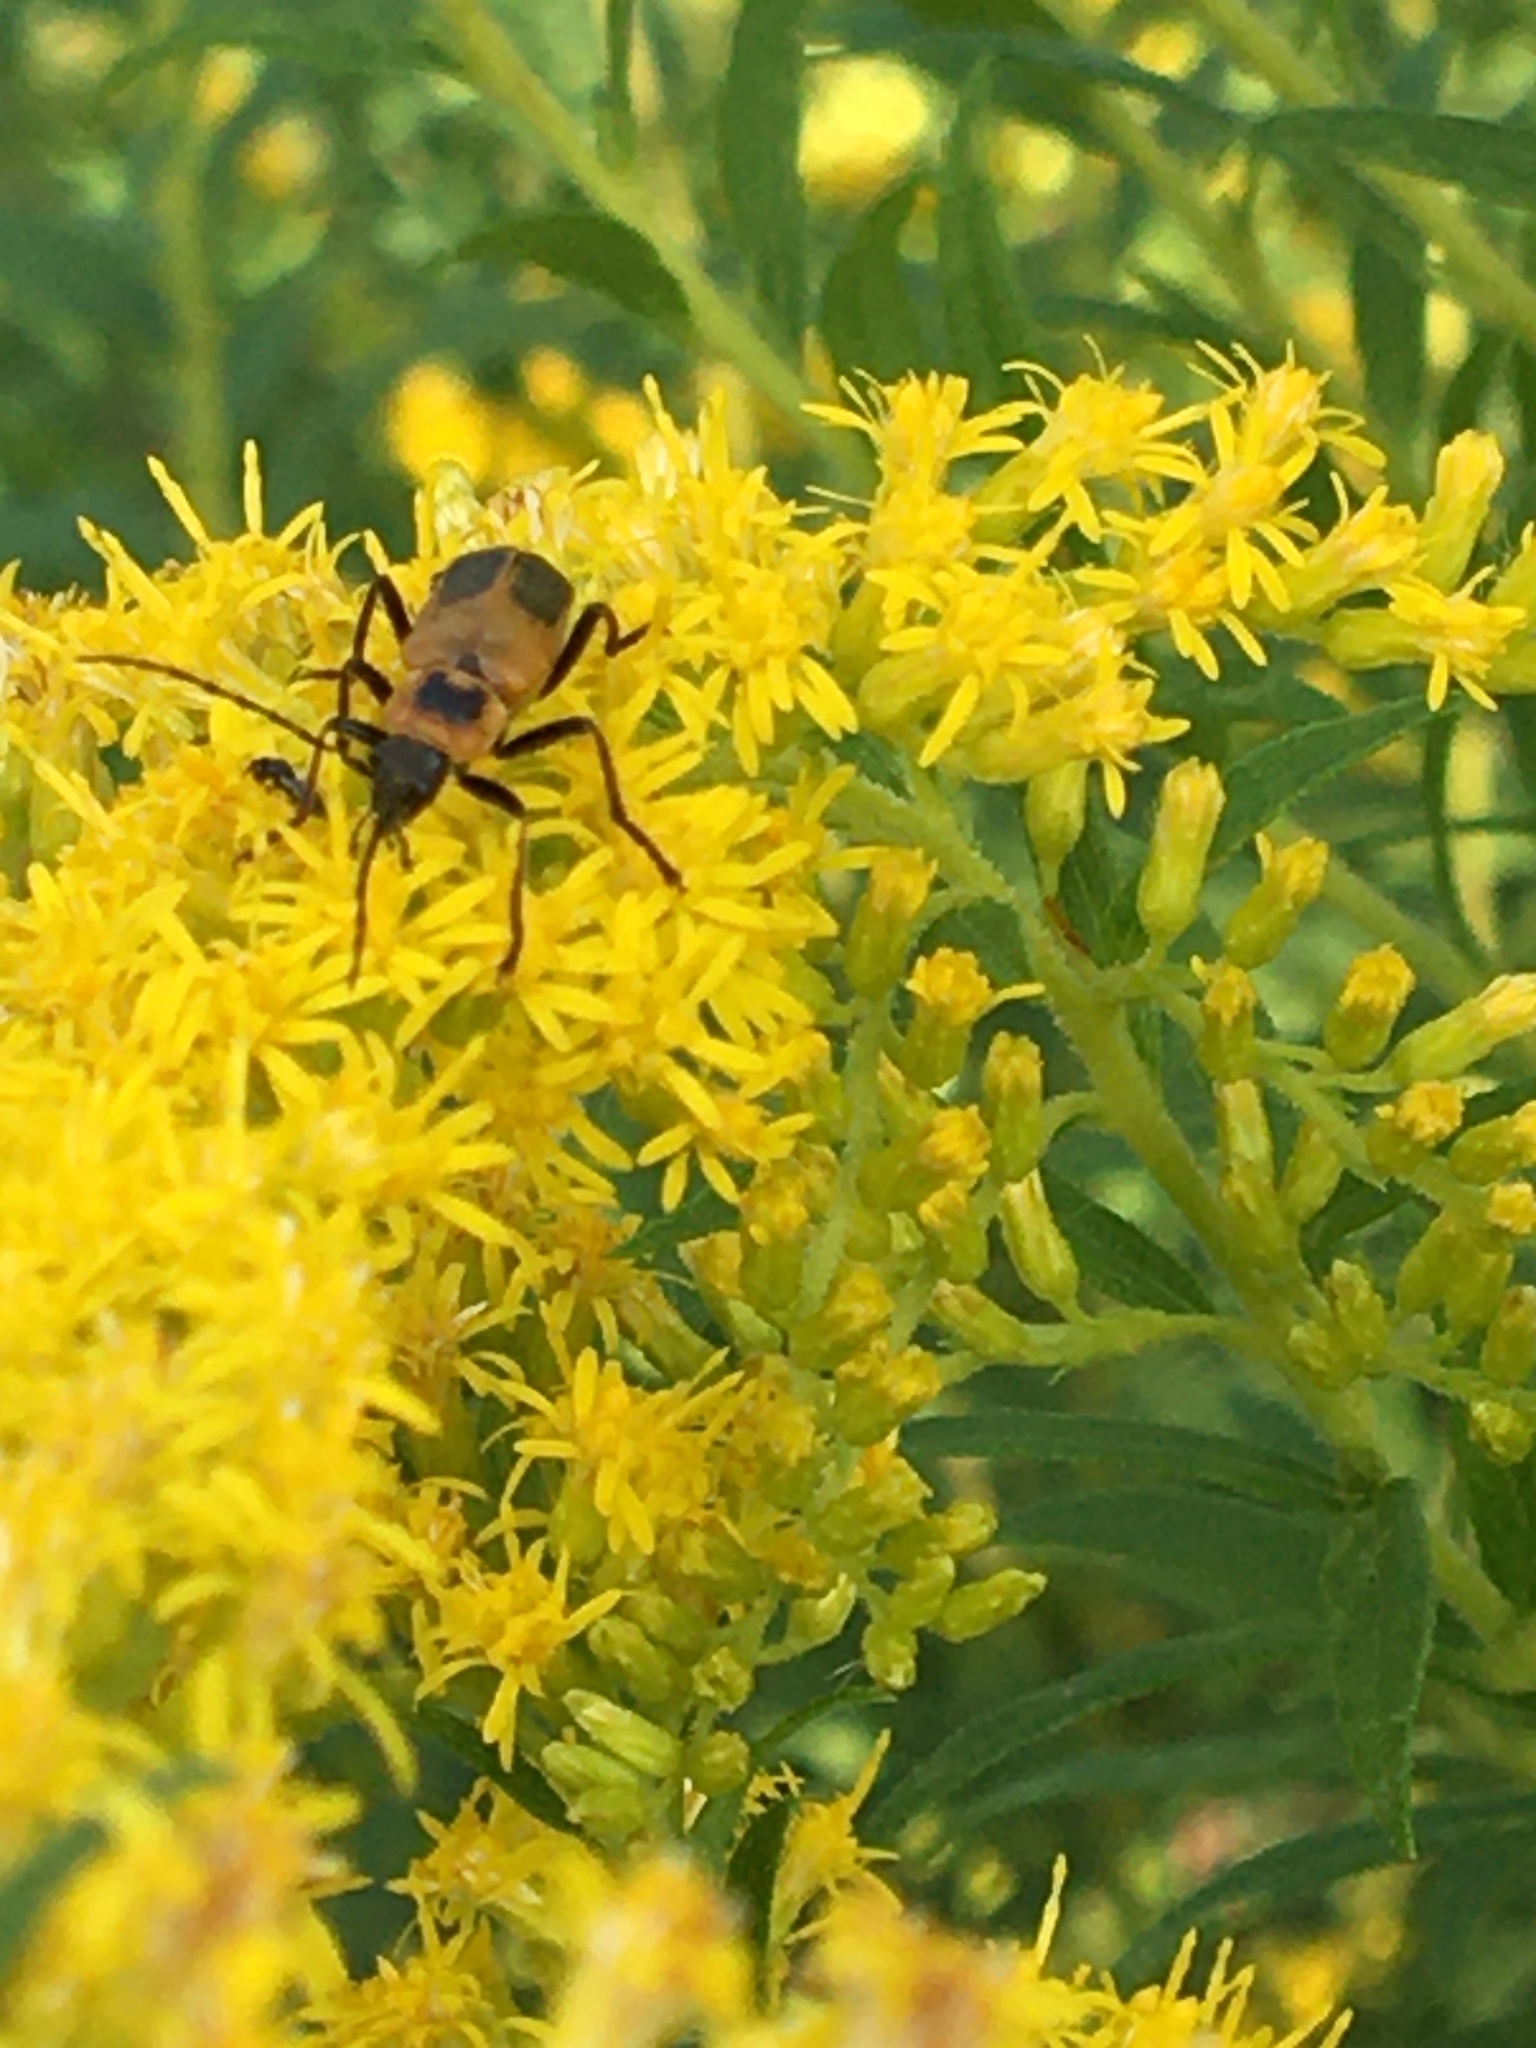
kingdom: Animalia
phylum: Arthropoda
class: Insecta
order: Coleoptera
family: Cantharidae
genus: Chauliognathus
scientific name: Chauliognathus pensylvanicus
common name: Goldenrod soldier beetle
